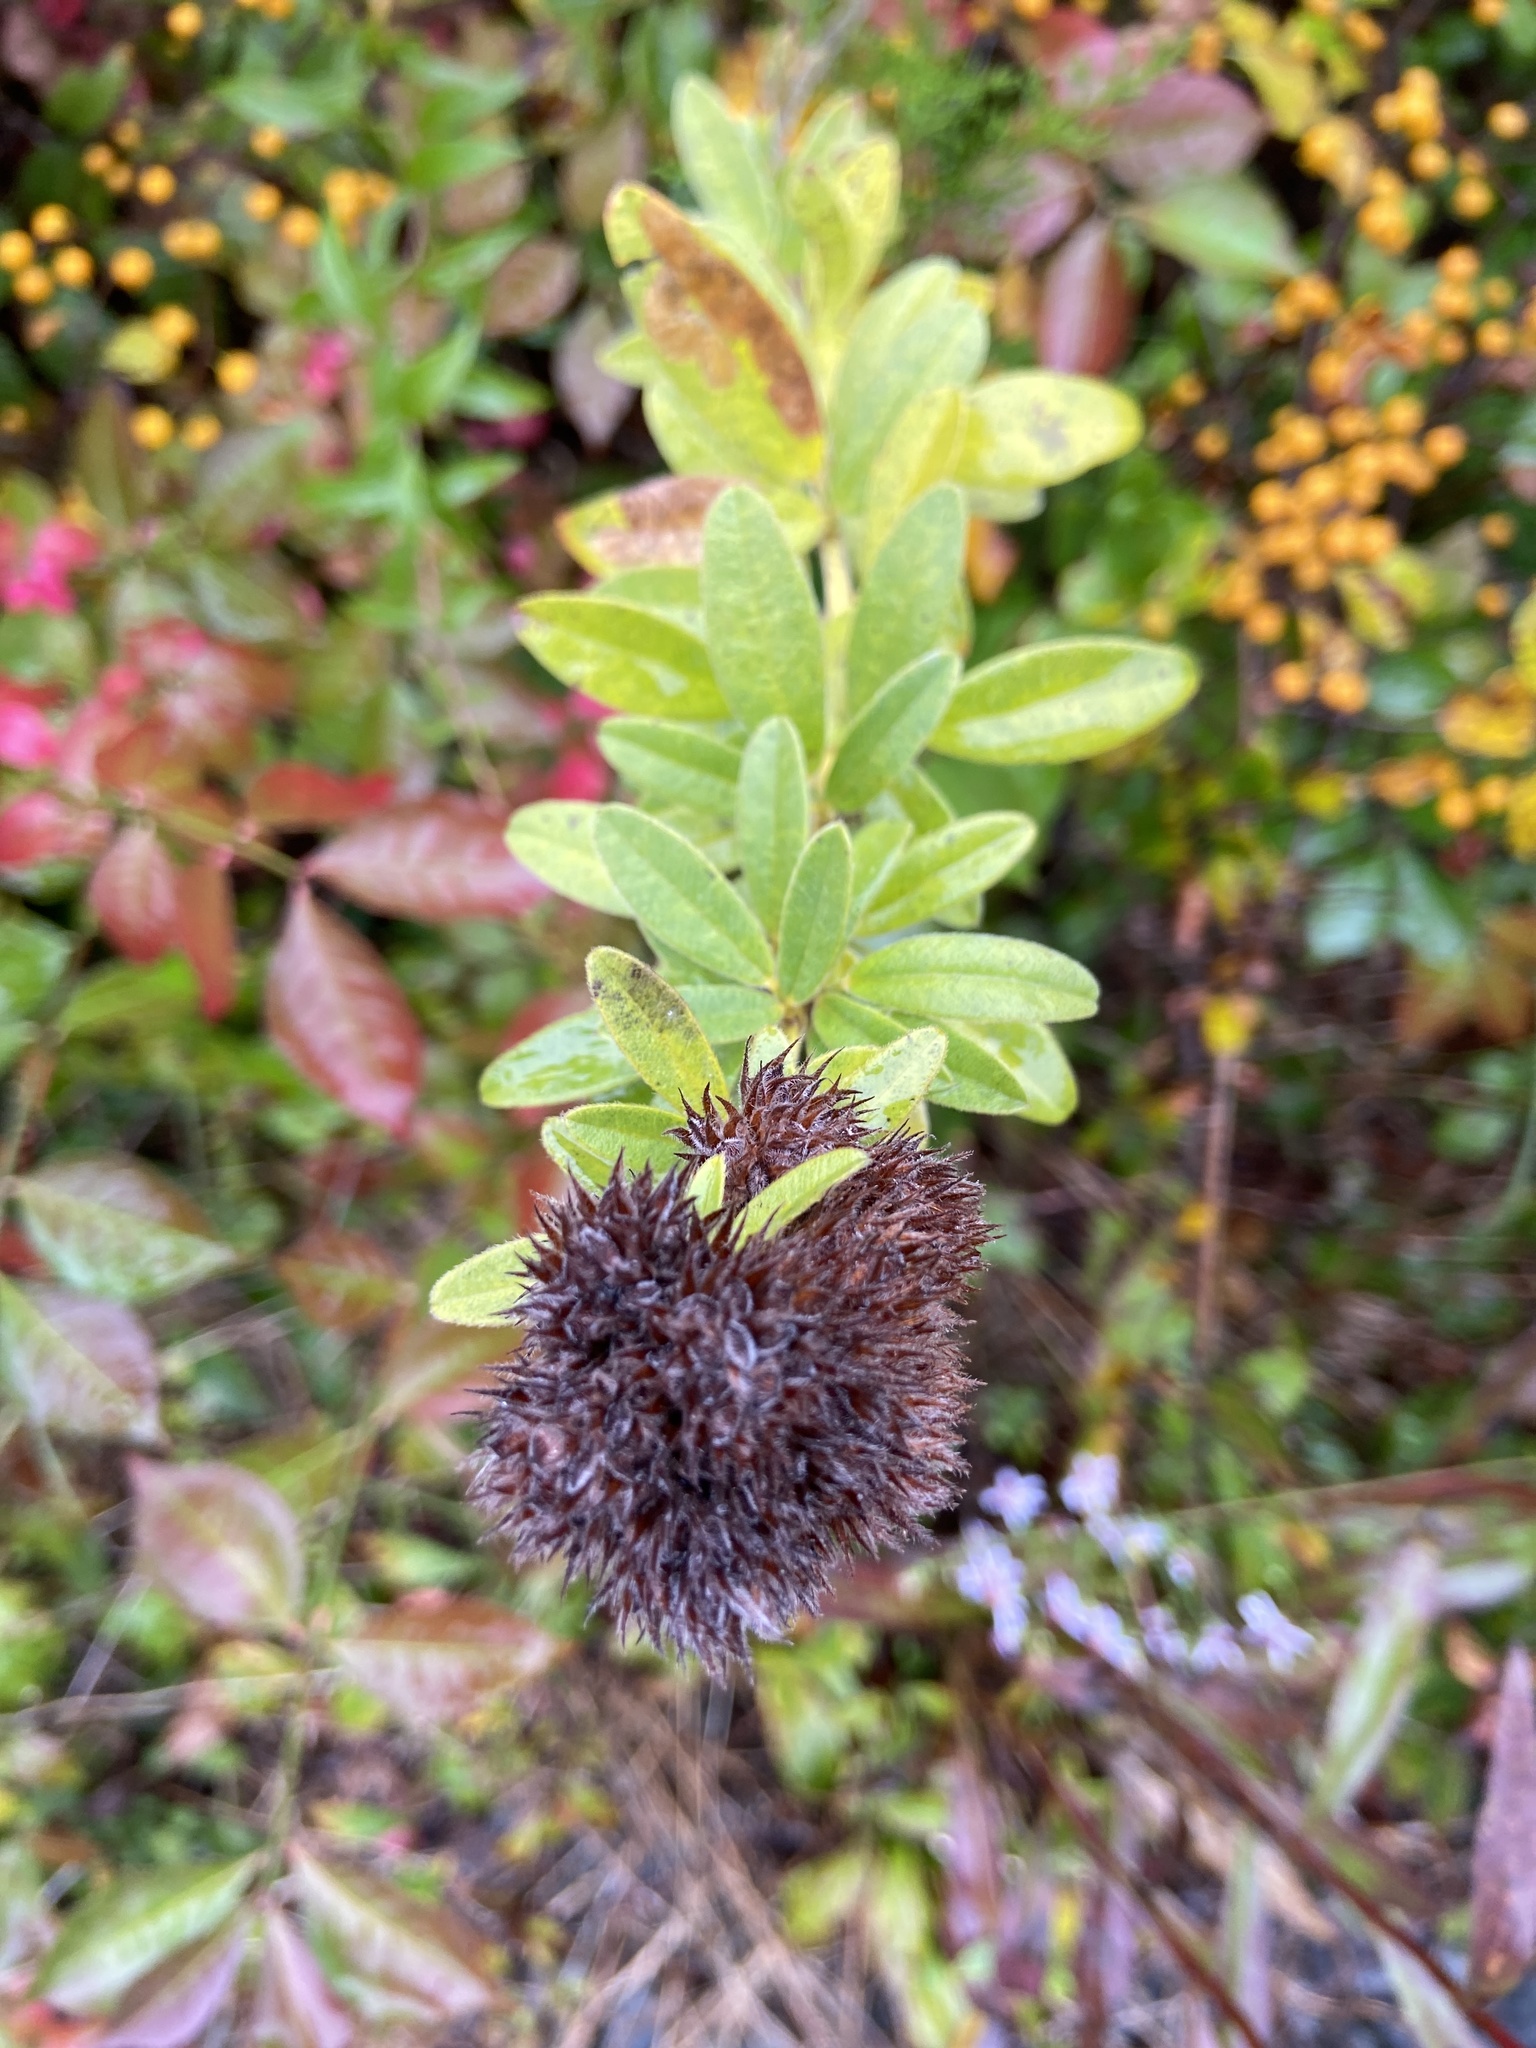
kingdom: Plantae
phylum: Tracheophyta
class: Magnoliopsida
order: Fabales
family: Fabaceae
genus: Lespedeza
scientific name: Lespedeza capitata
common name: Dusty clover
